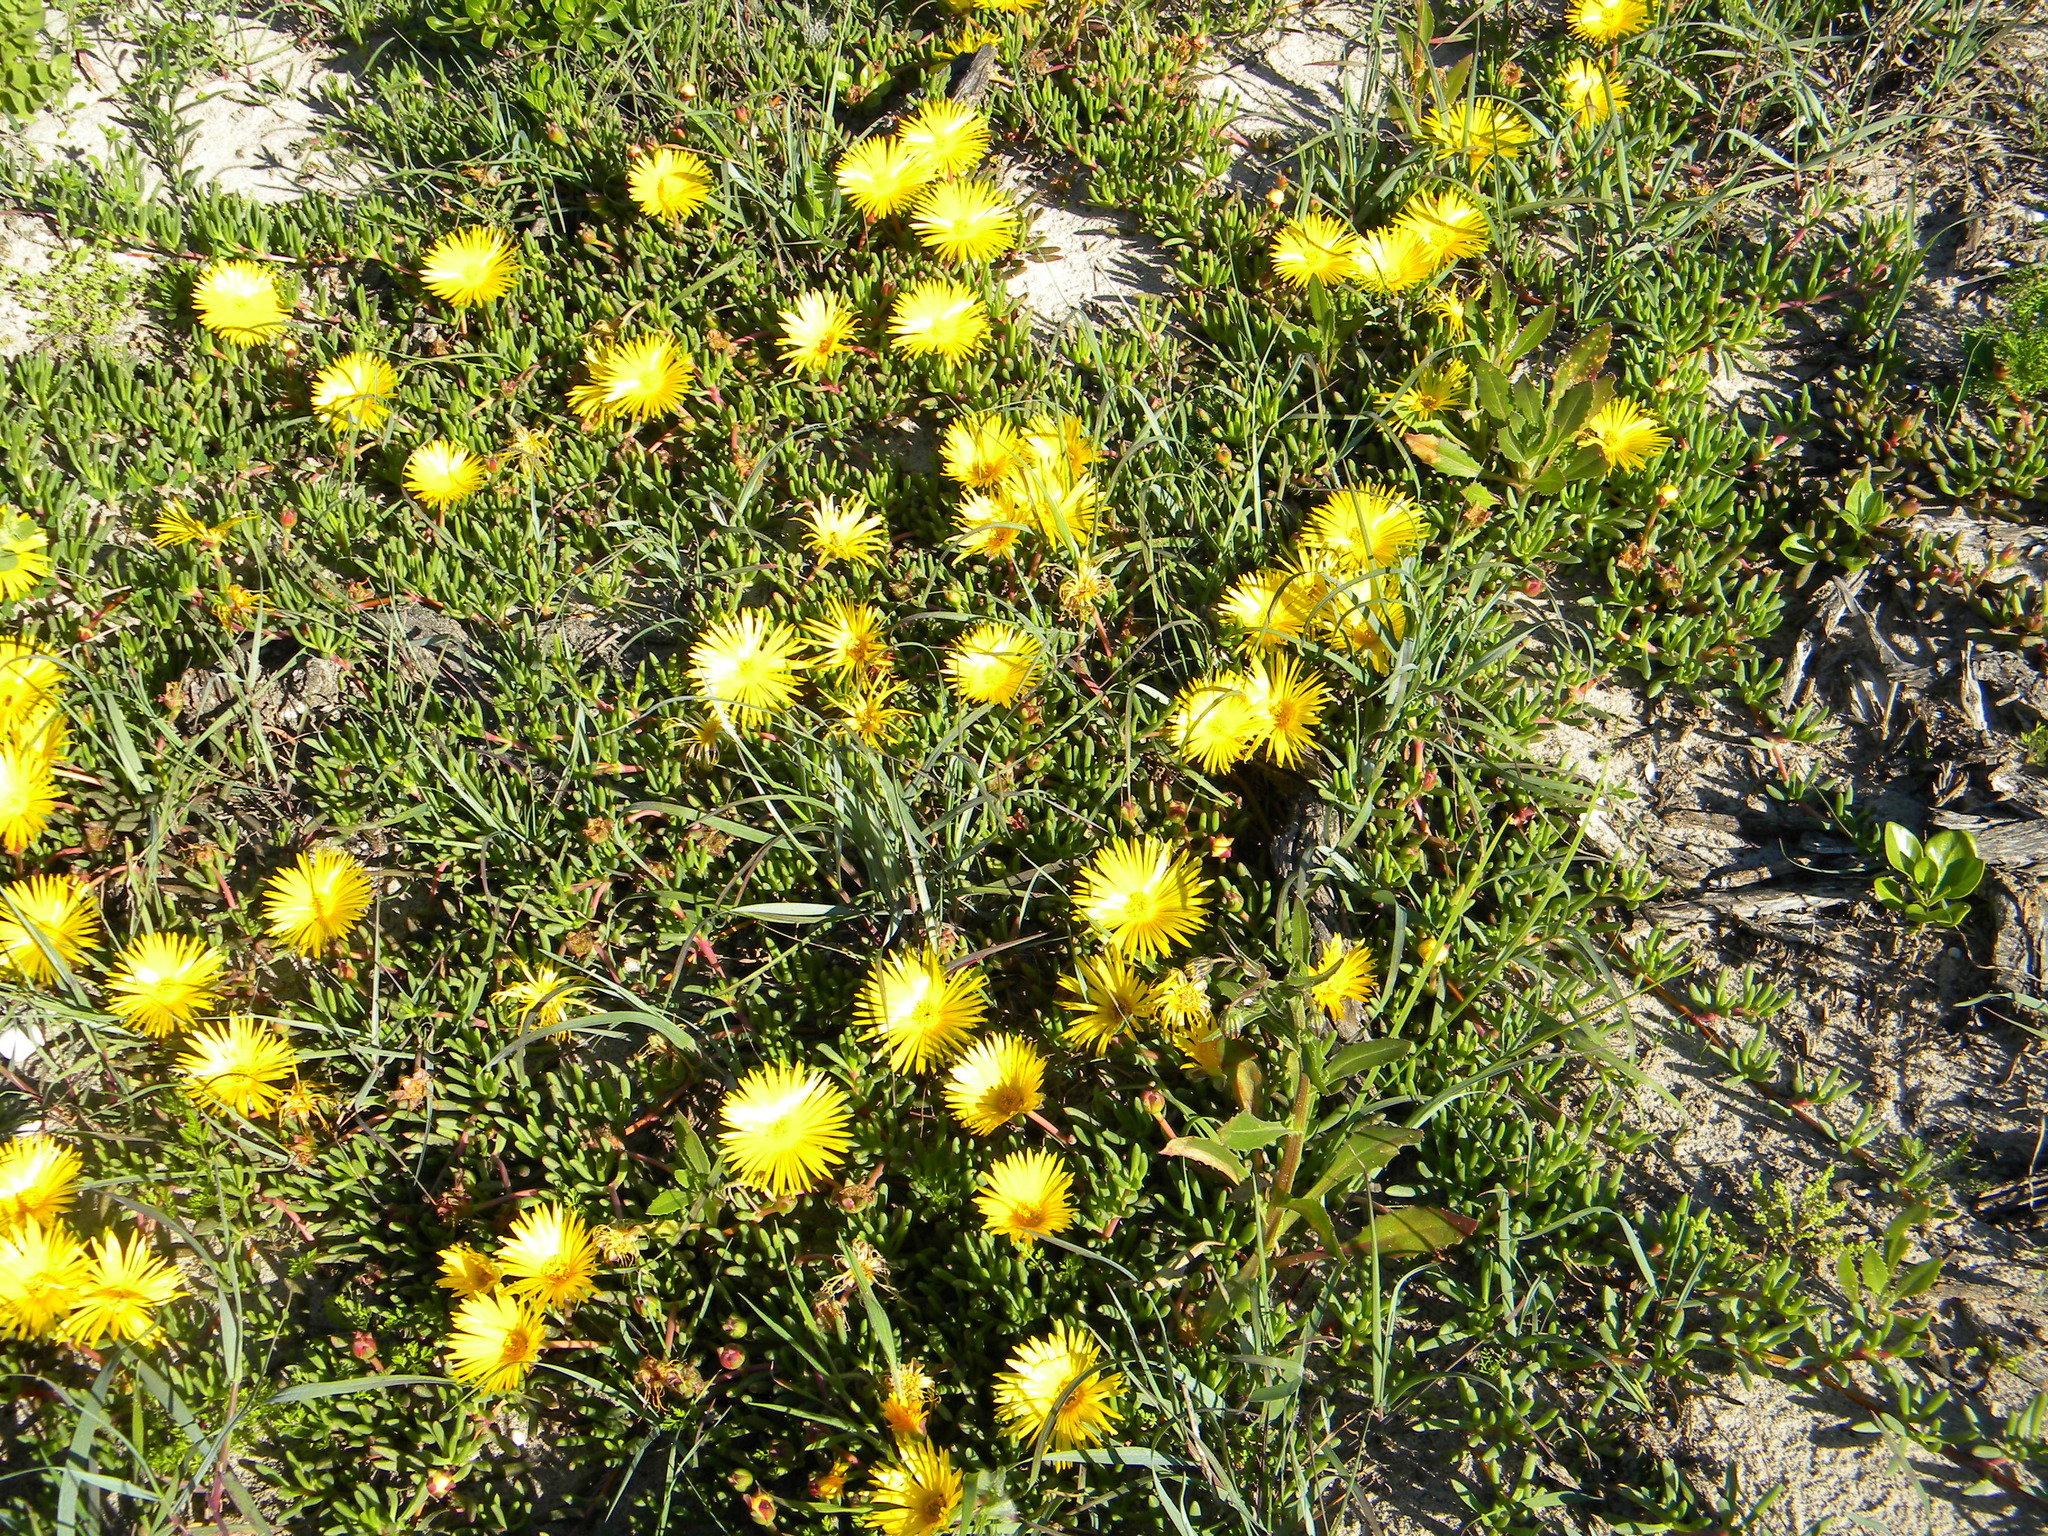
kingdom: Plantae
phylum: Tracheophyta
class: Magnoliopsida
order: Caryophyllales
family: Aizoaceae
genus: Jordaaniella
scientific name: Jordaaniella dubia
